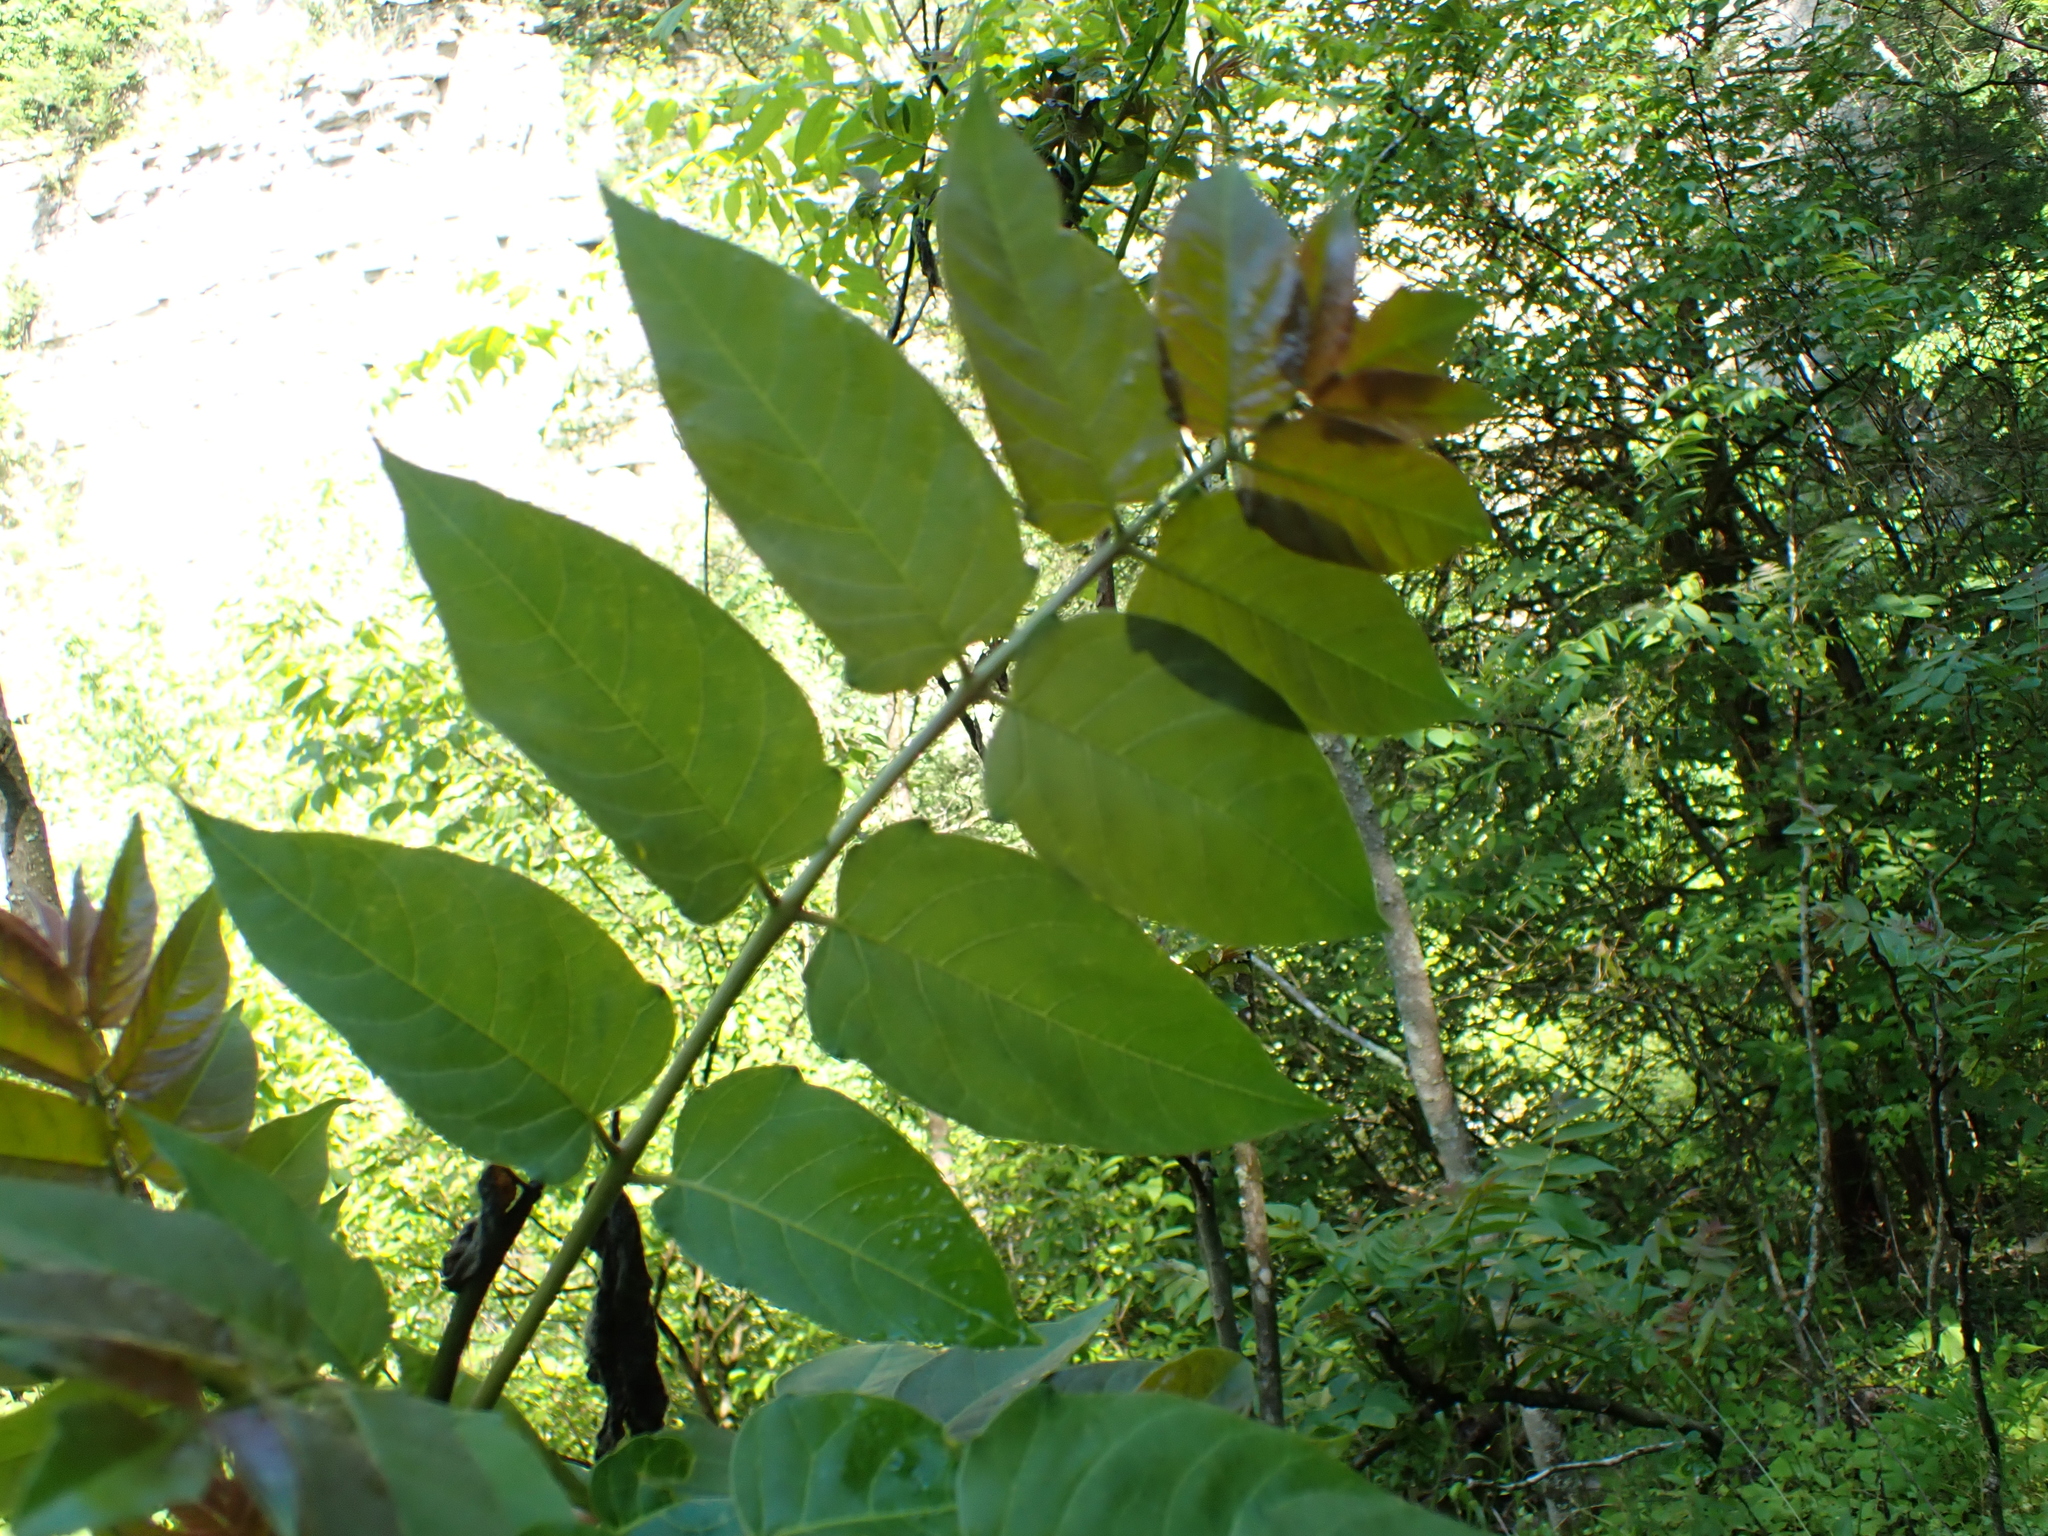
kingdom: Plantae
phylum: Tracheophyta
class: Magnoliopsida
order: Sapindales
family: Simaroubaceae
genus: Ailanthus
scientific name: Ailanthus altissima
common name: Tree-of-heaven
